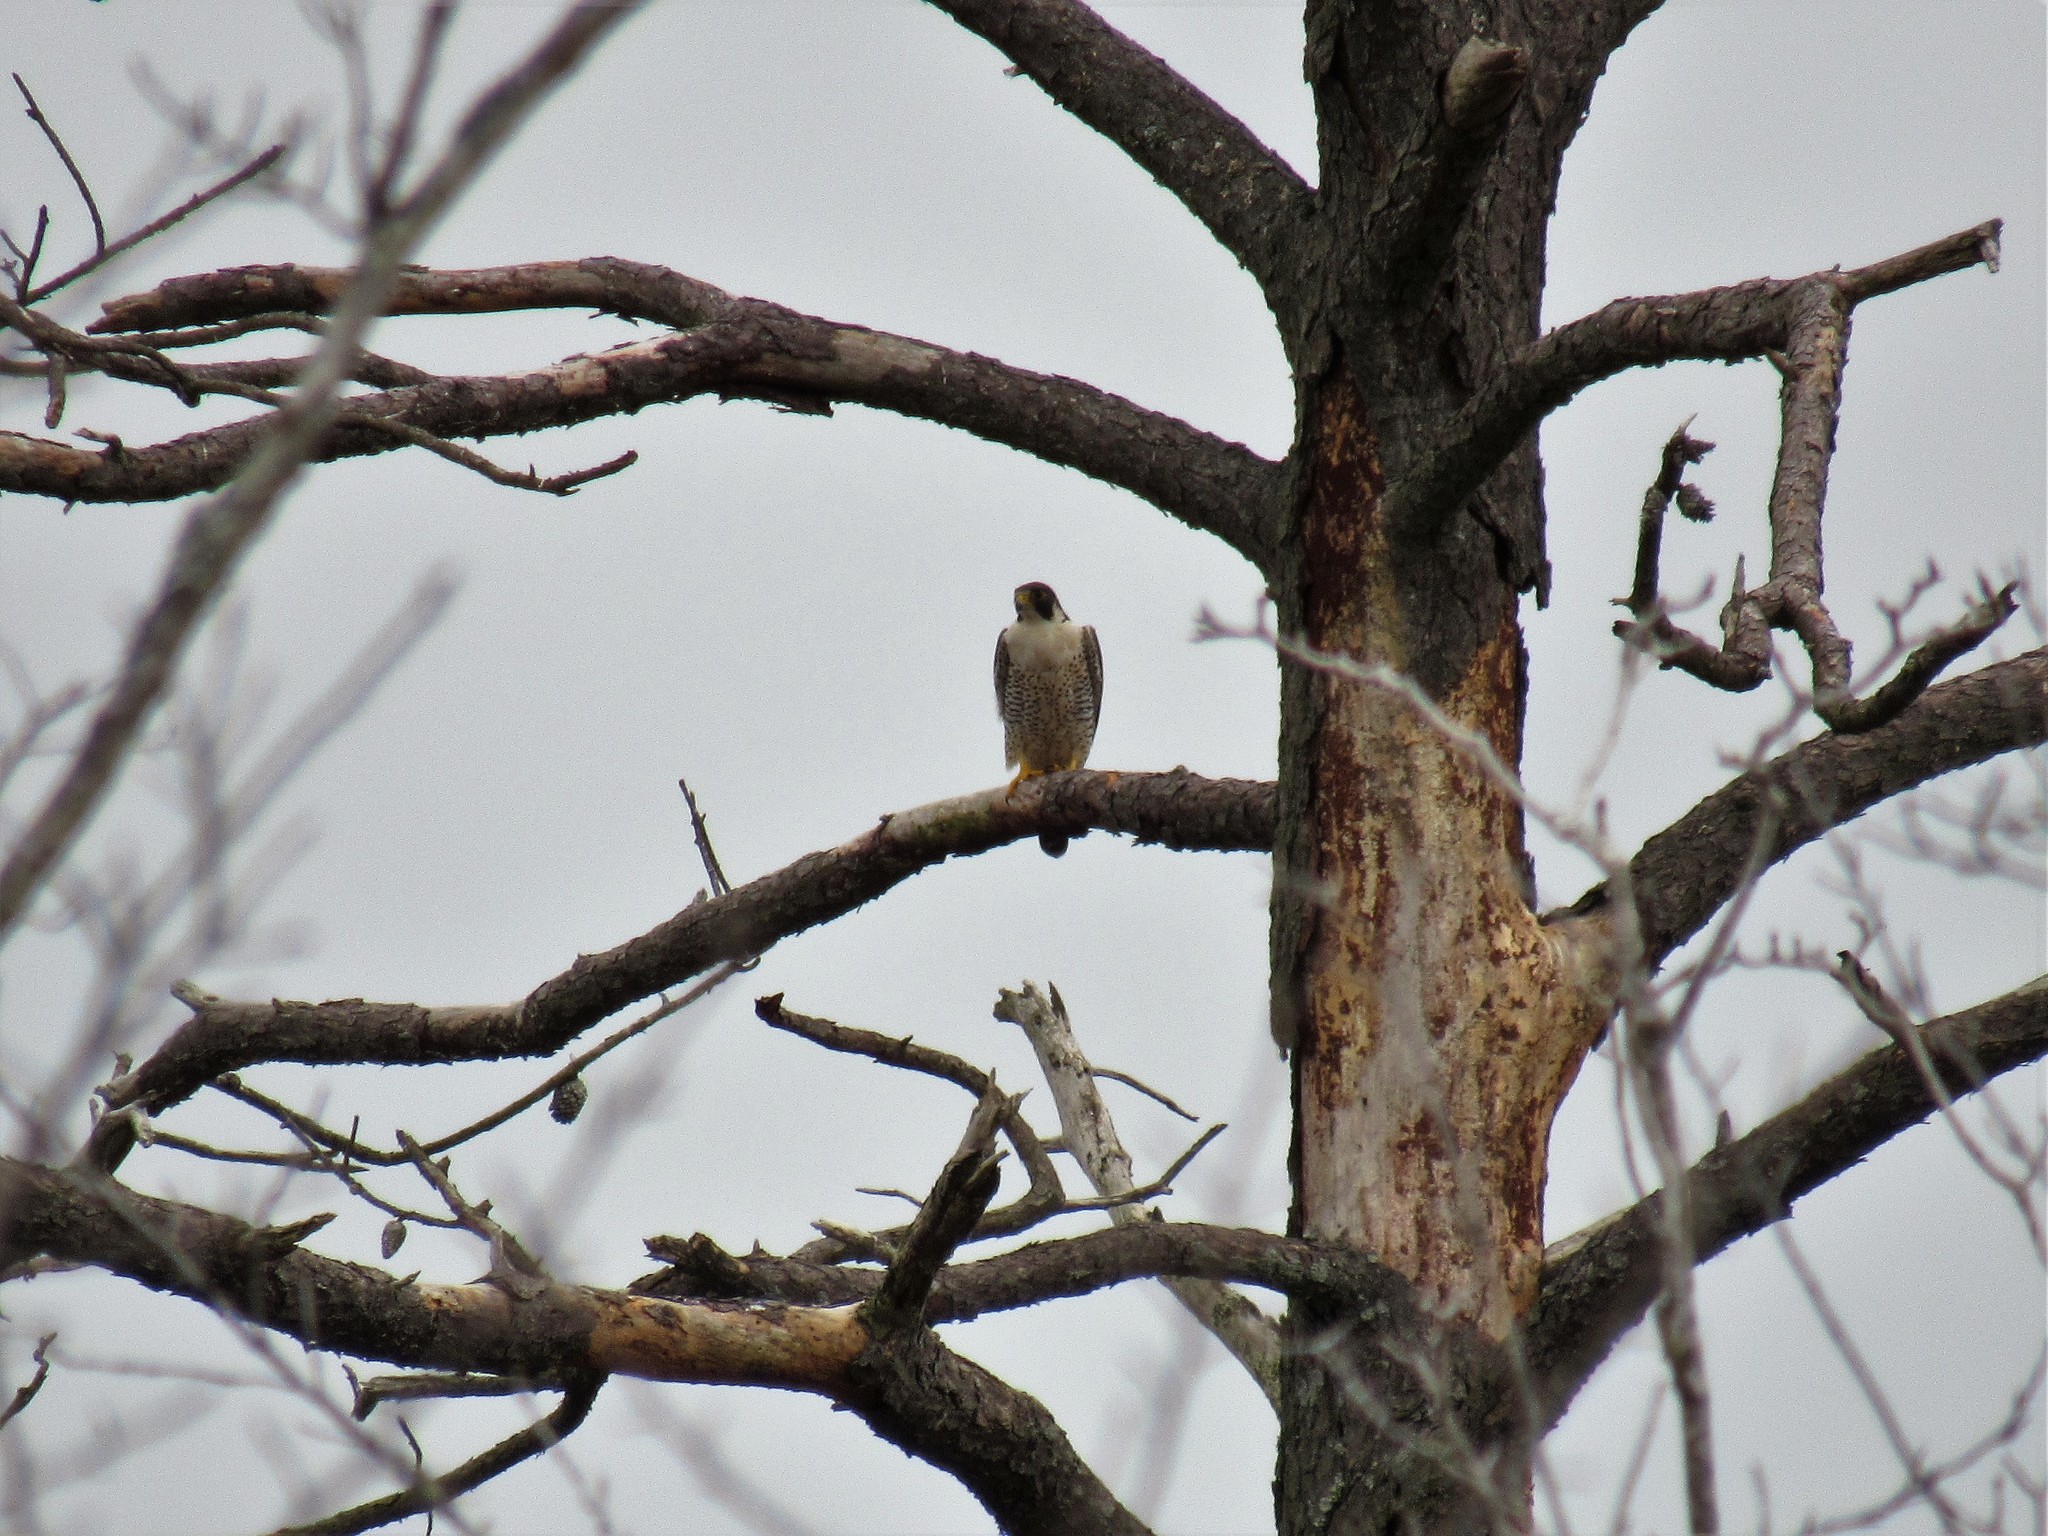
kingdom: Animalia
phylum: Chordata
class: Aves
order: Falconiformes
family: Falconidae
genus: Falco
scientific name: Falco peregrinus
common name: Peregrine falcon
